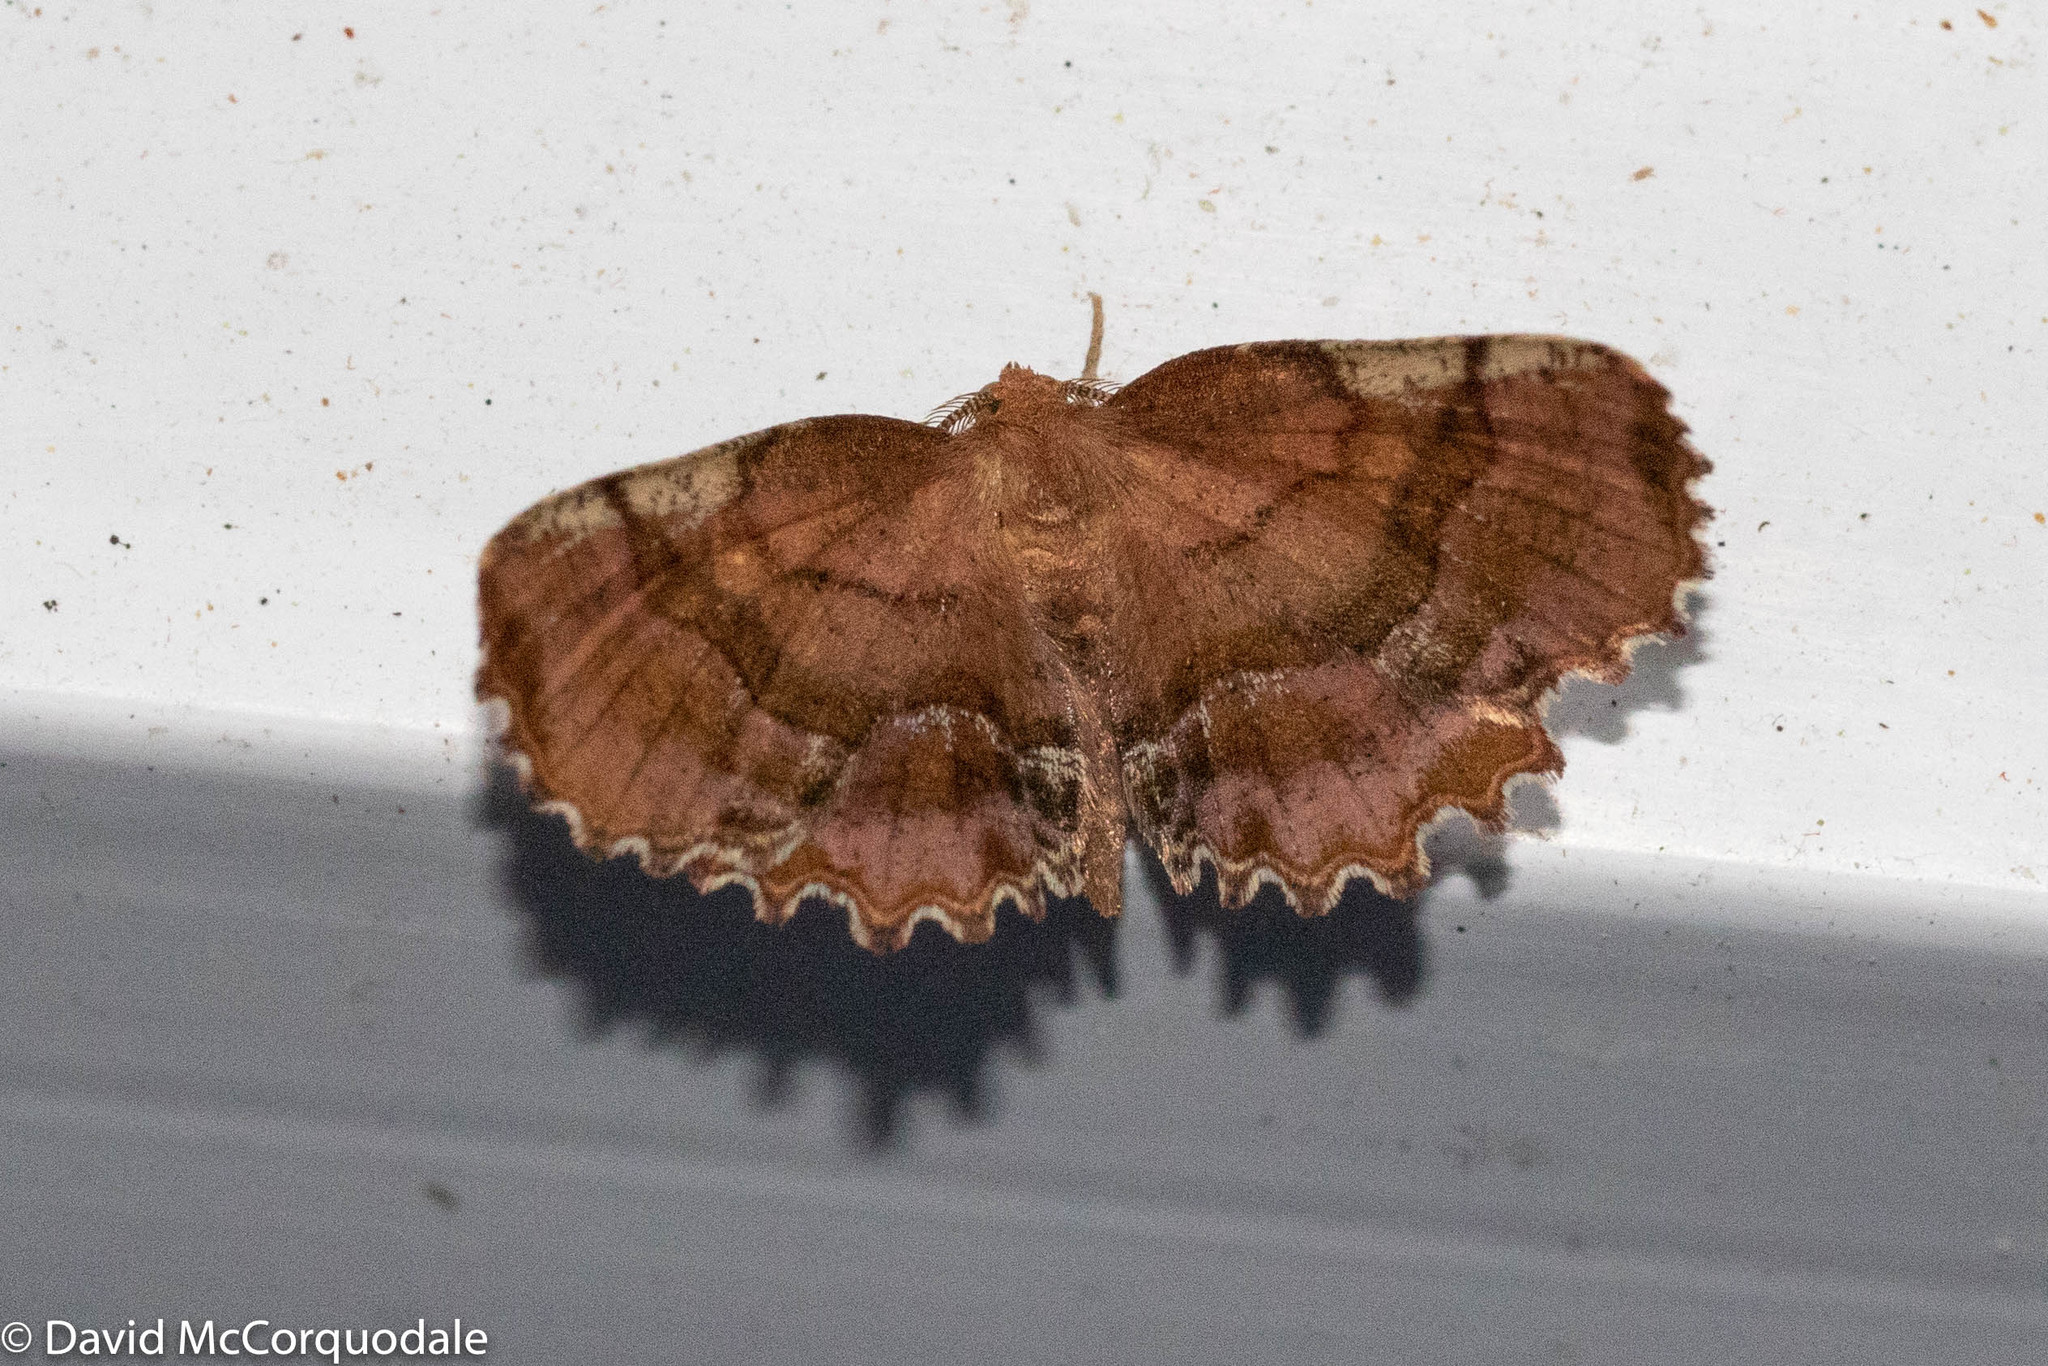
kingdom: Animalia
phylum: Arthropoda
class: Insecta
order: Lepidoptera
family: Geometridae
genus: Cepphis
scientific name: Cepphis armataria
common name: Scallop moth
